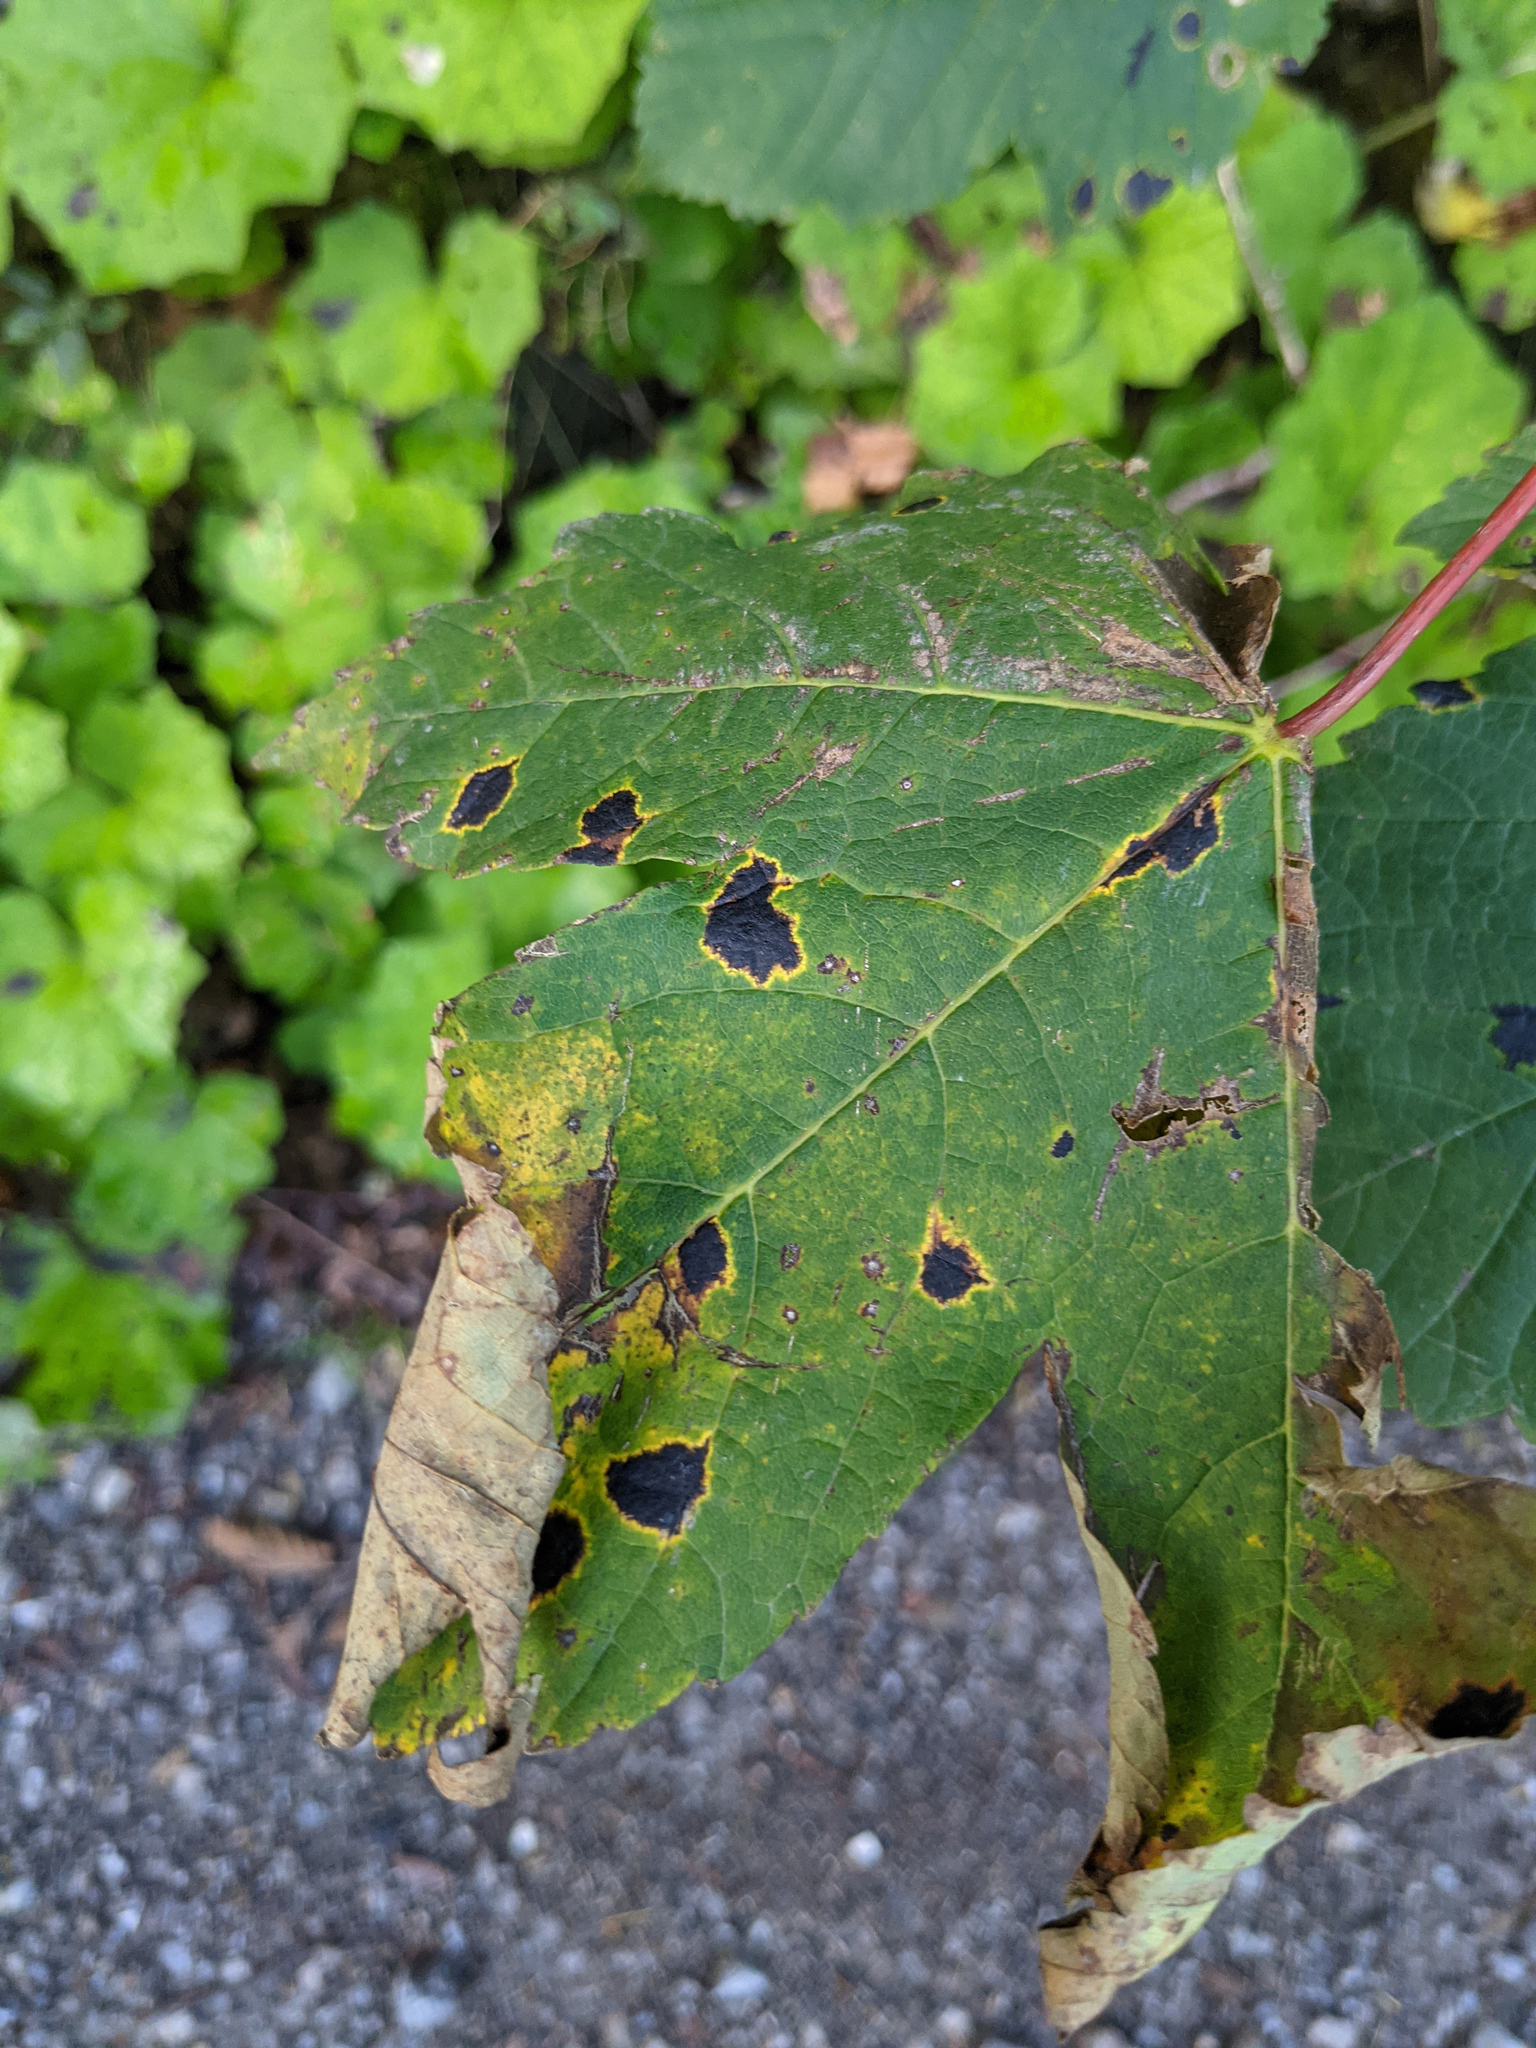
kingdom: Fungi
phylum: Ascomycota
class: Leotiomycetes
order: Rhytismatales
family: Rhytismataceae
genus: Rhytisma
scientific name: Rhytisma acerinum
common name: European tar spot
